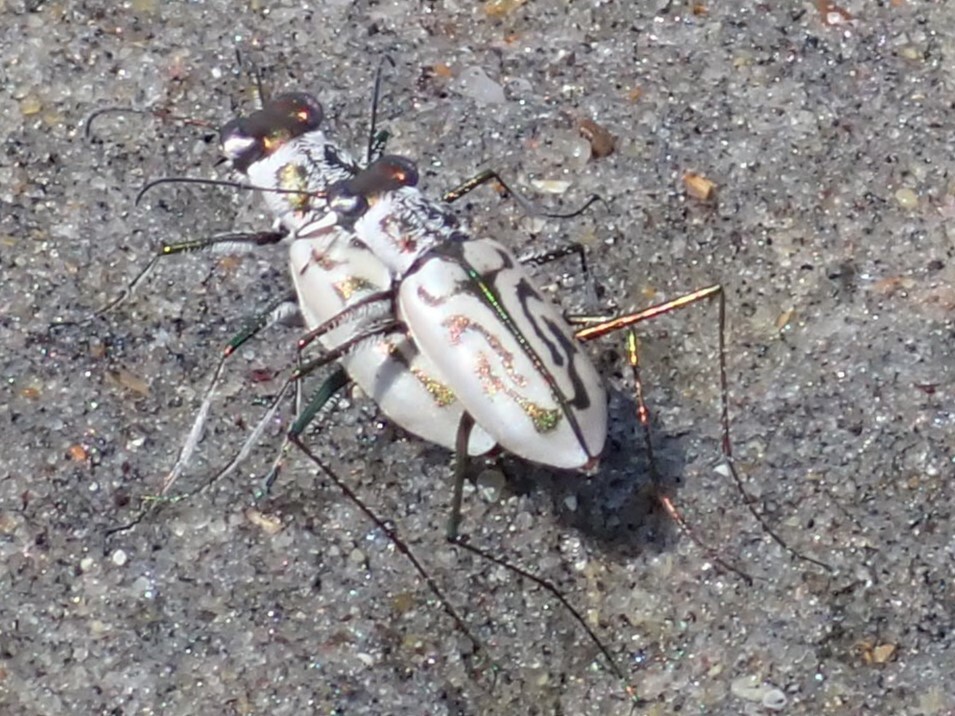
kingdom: Animalia
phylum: Arthropoda
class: Insecta
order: Coleoptera
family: Carabidae
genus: Habroscelimorpha
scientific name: Habroscelimorpha dorsalis
